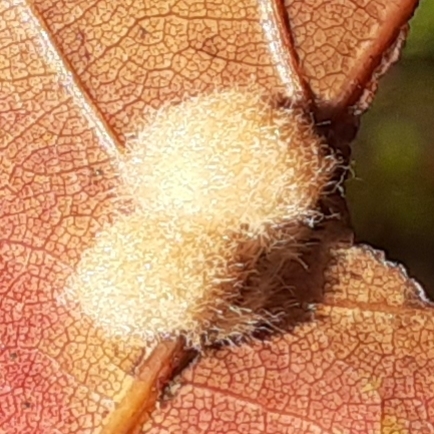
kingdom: Animalia
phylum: Arthropoda
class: Insecta
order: Hymenoptera
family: Cynipidae
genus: Callirhytis
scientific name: Callirhytis
